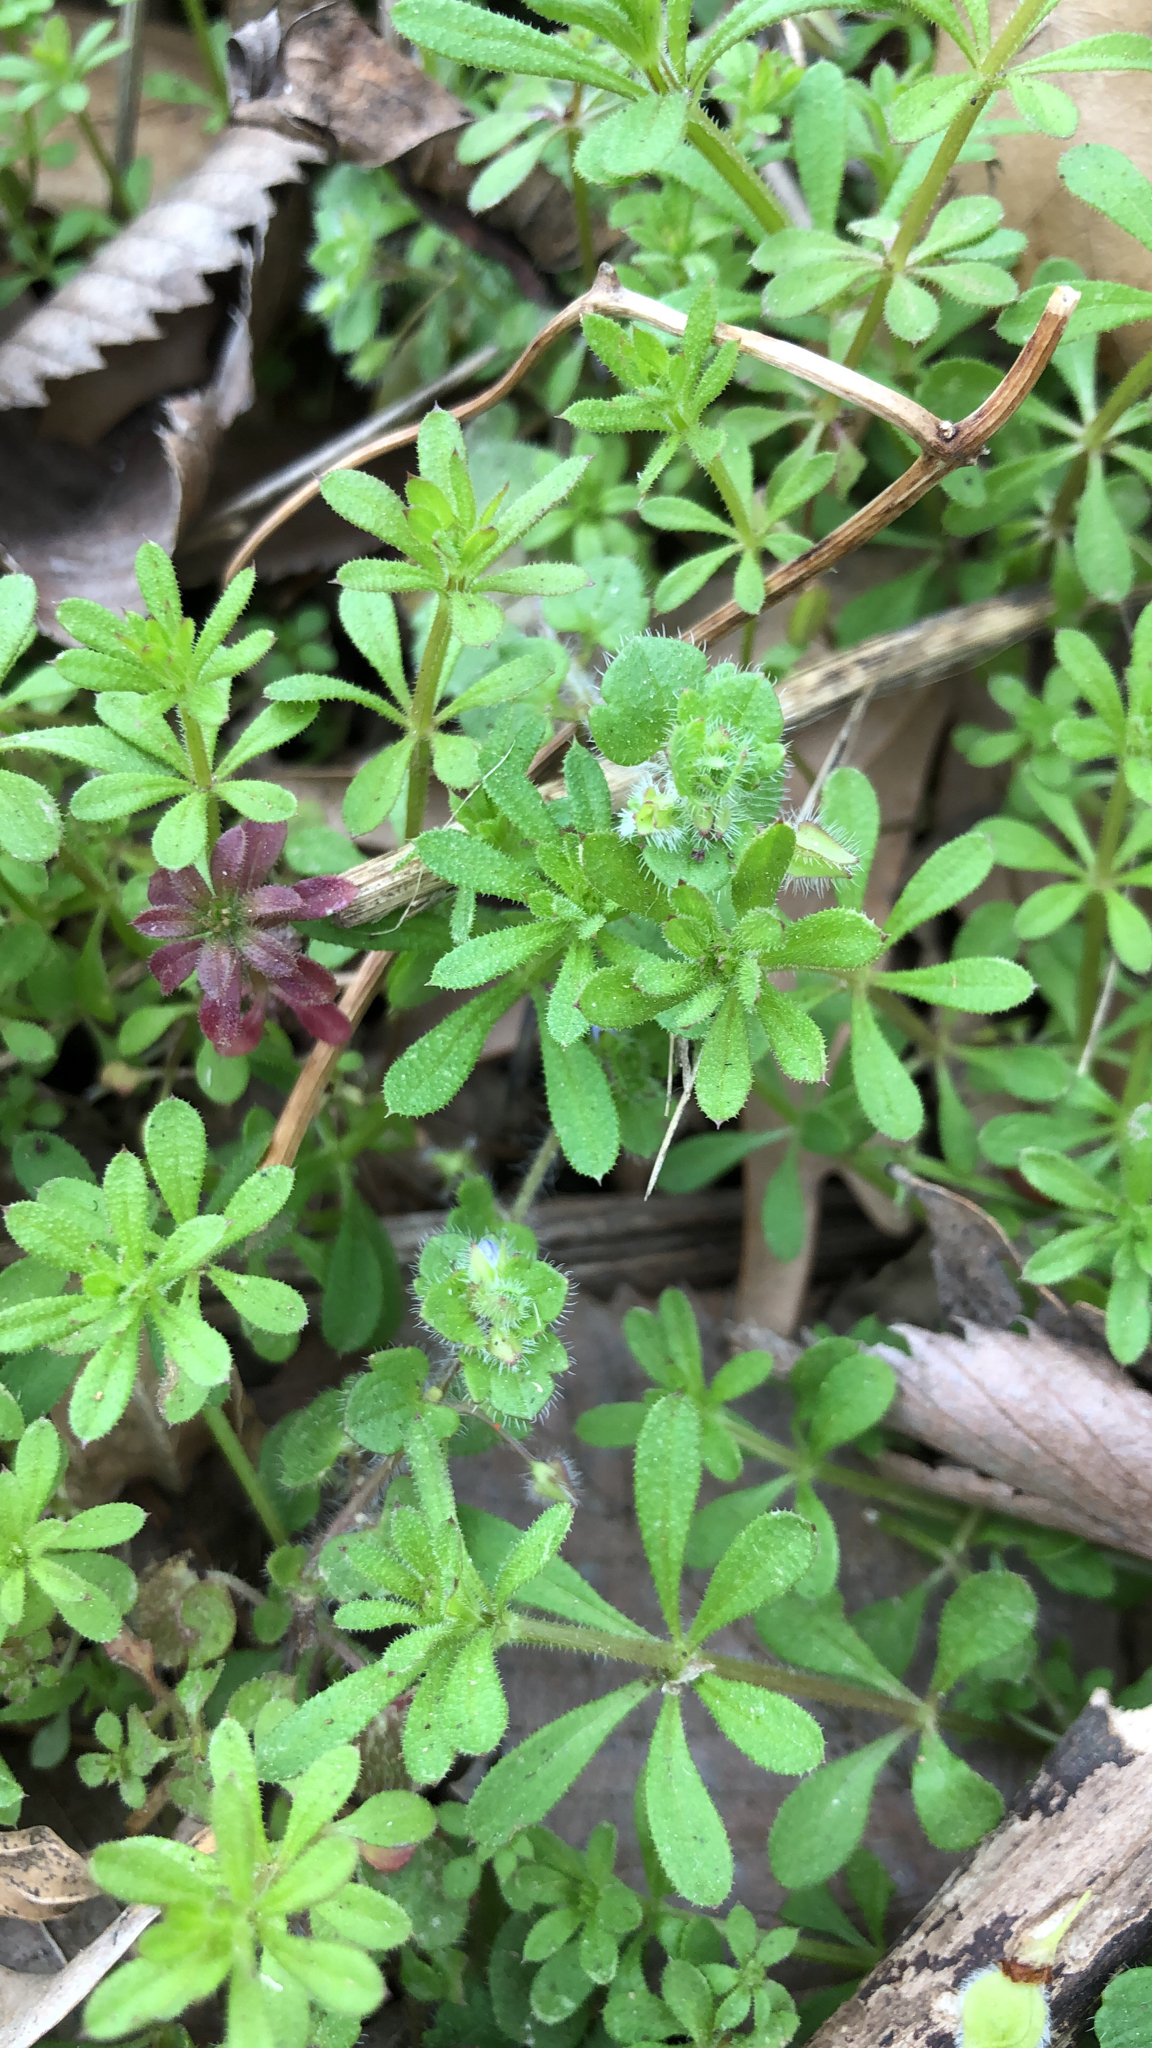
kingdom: Plantae
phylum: Tracheophyta
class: Magnoliopsida
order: Gentianales
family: Rubiaceae
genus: Galium
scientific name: Galium aparine
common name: Cleavers
